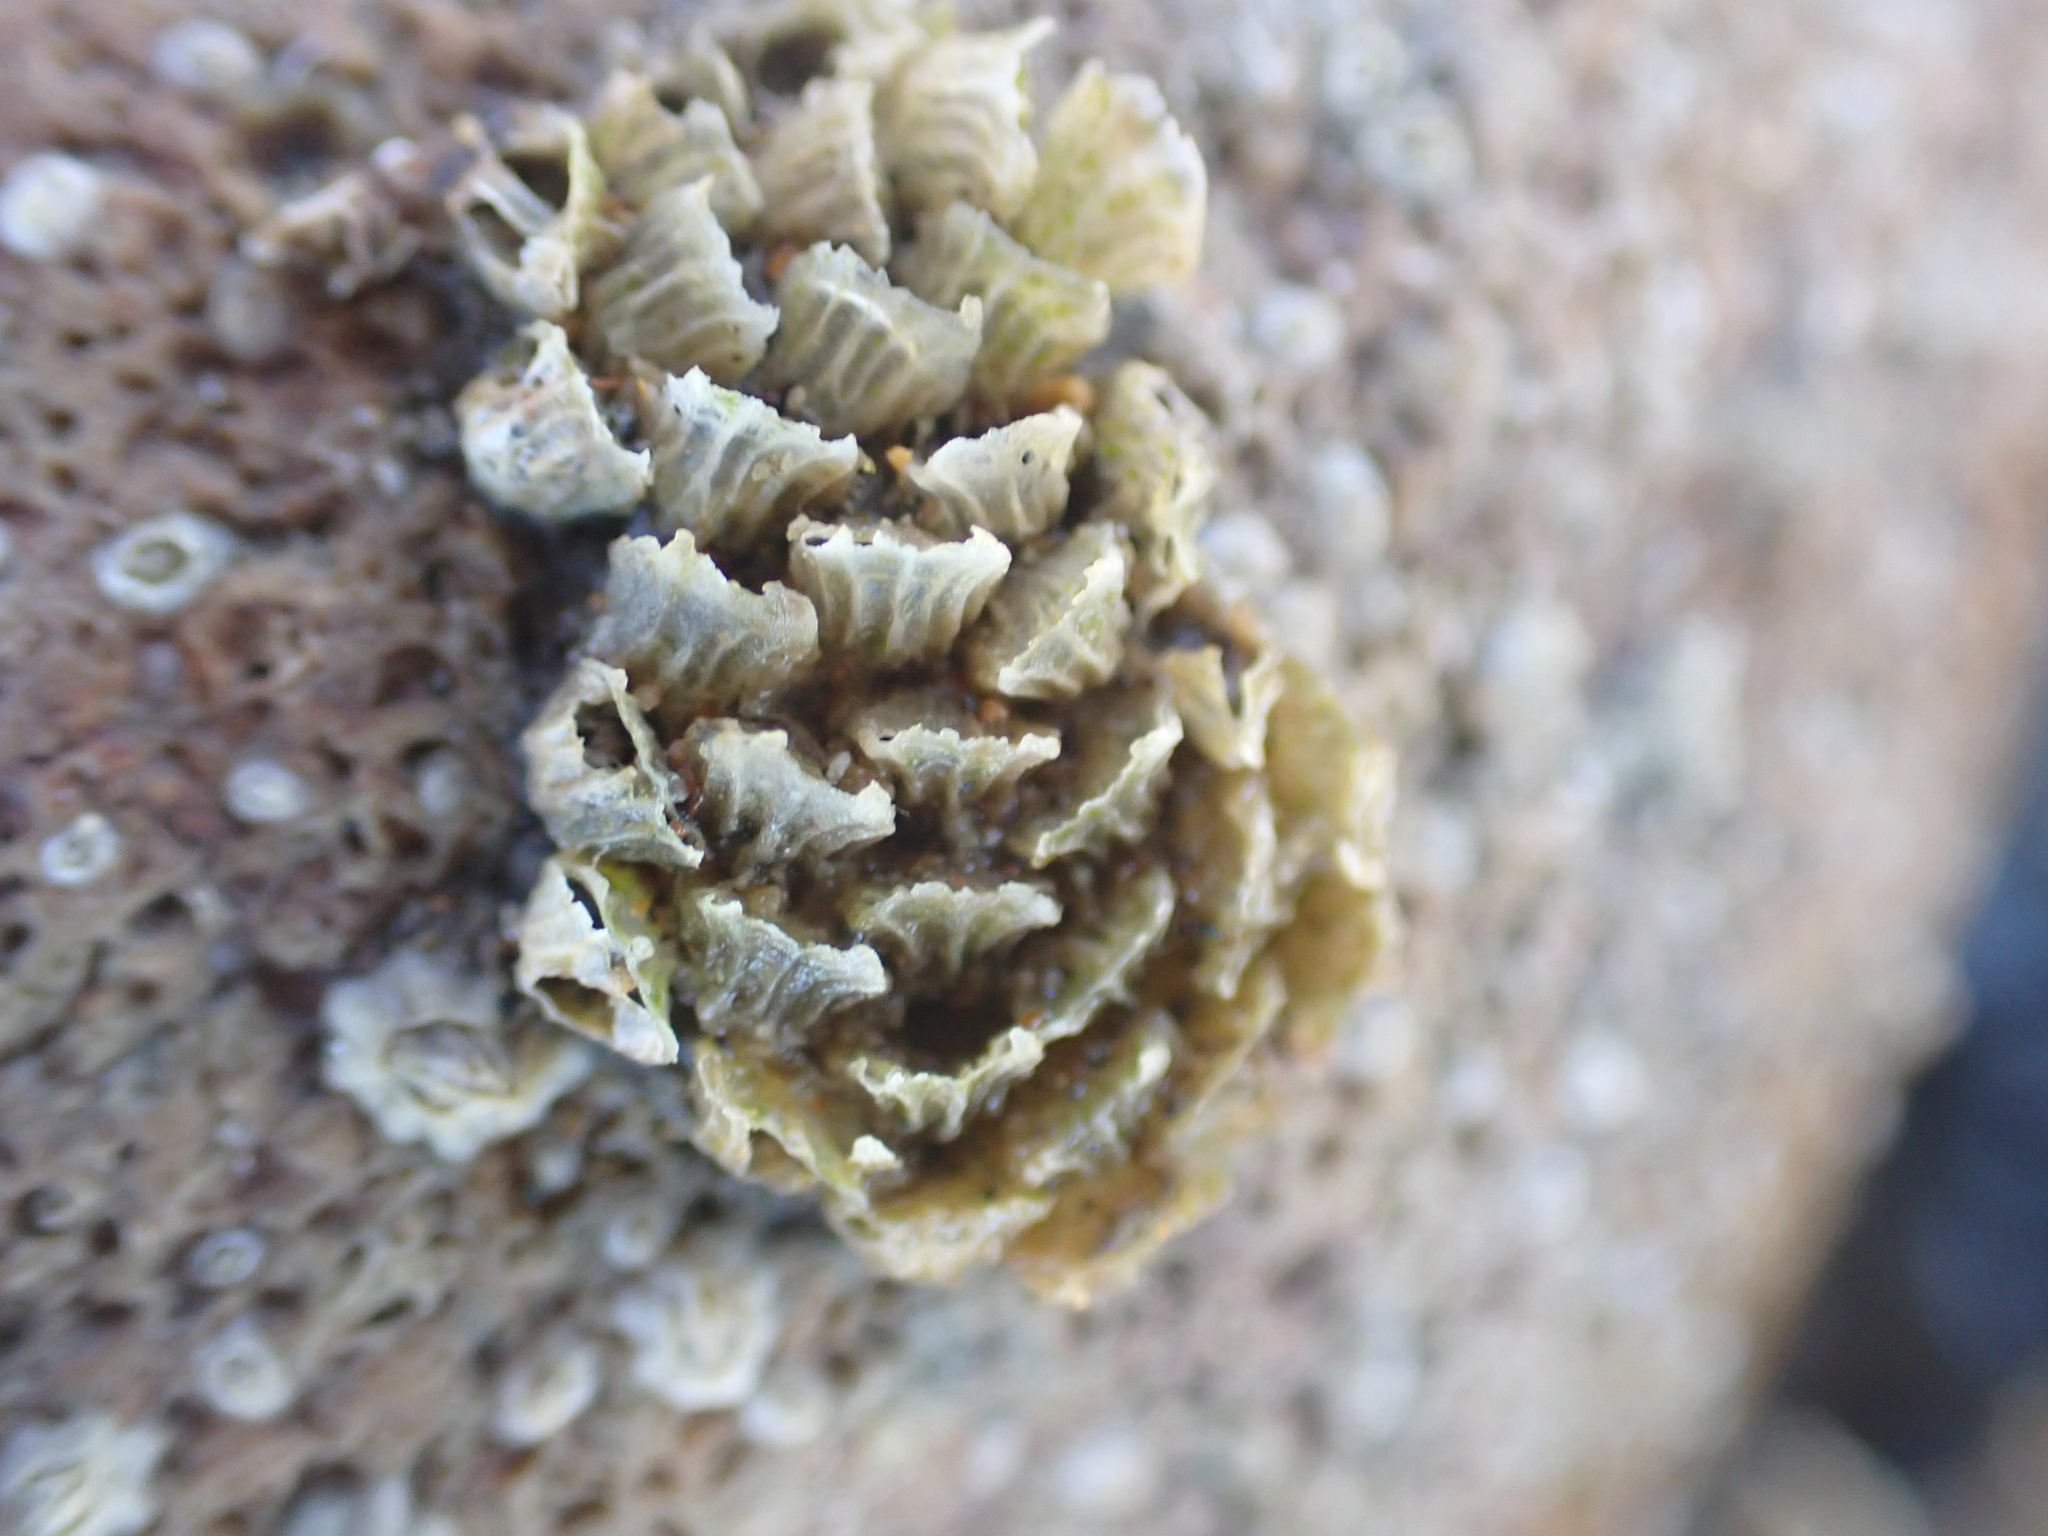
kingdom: Animalia
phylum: Mollusca
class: Gastropoda
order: Neogastropoda
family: Cominellidae
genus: Cominella
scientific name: Cominella virgata
